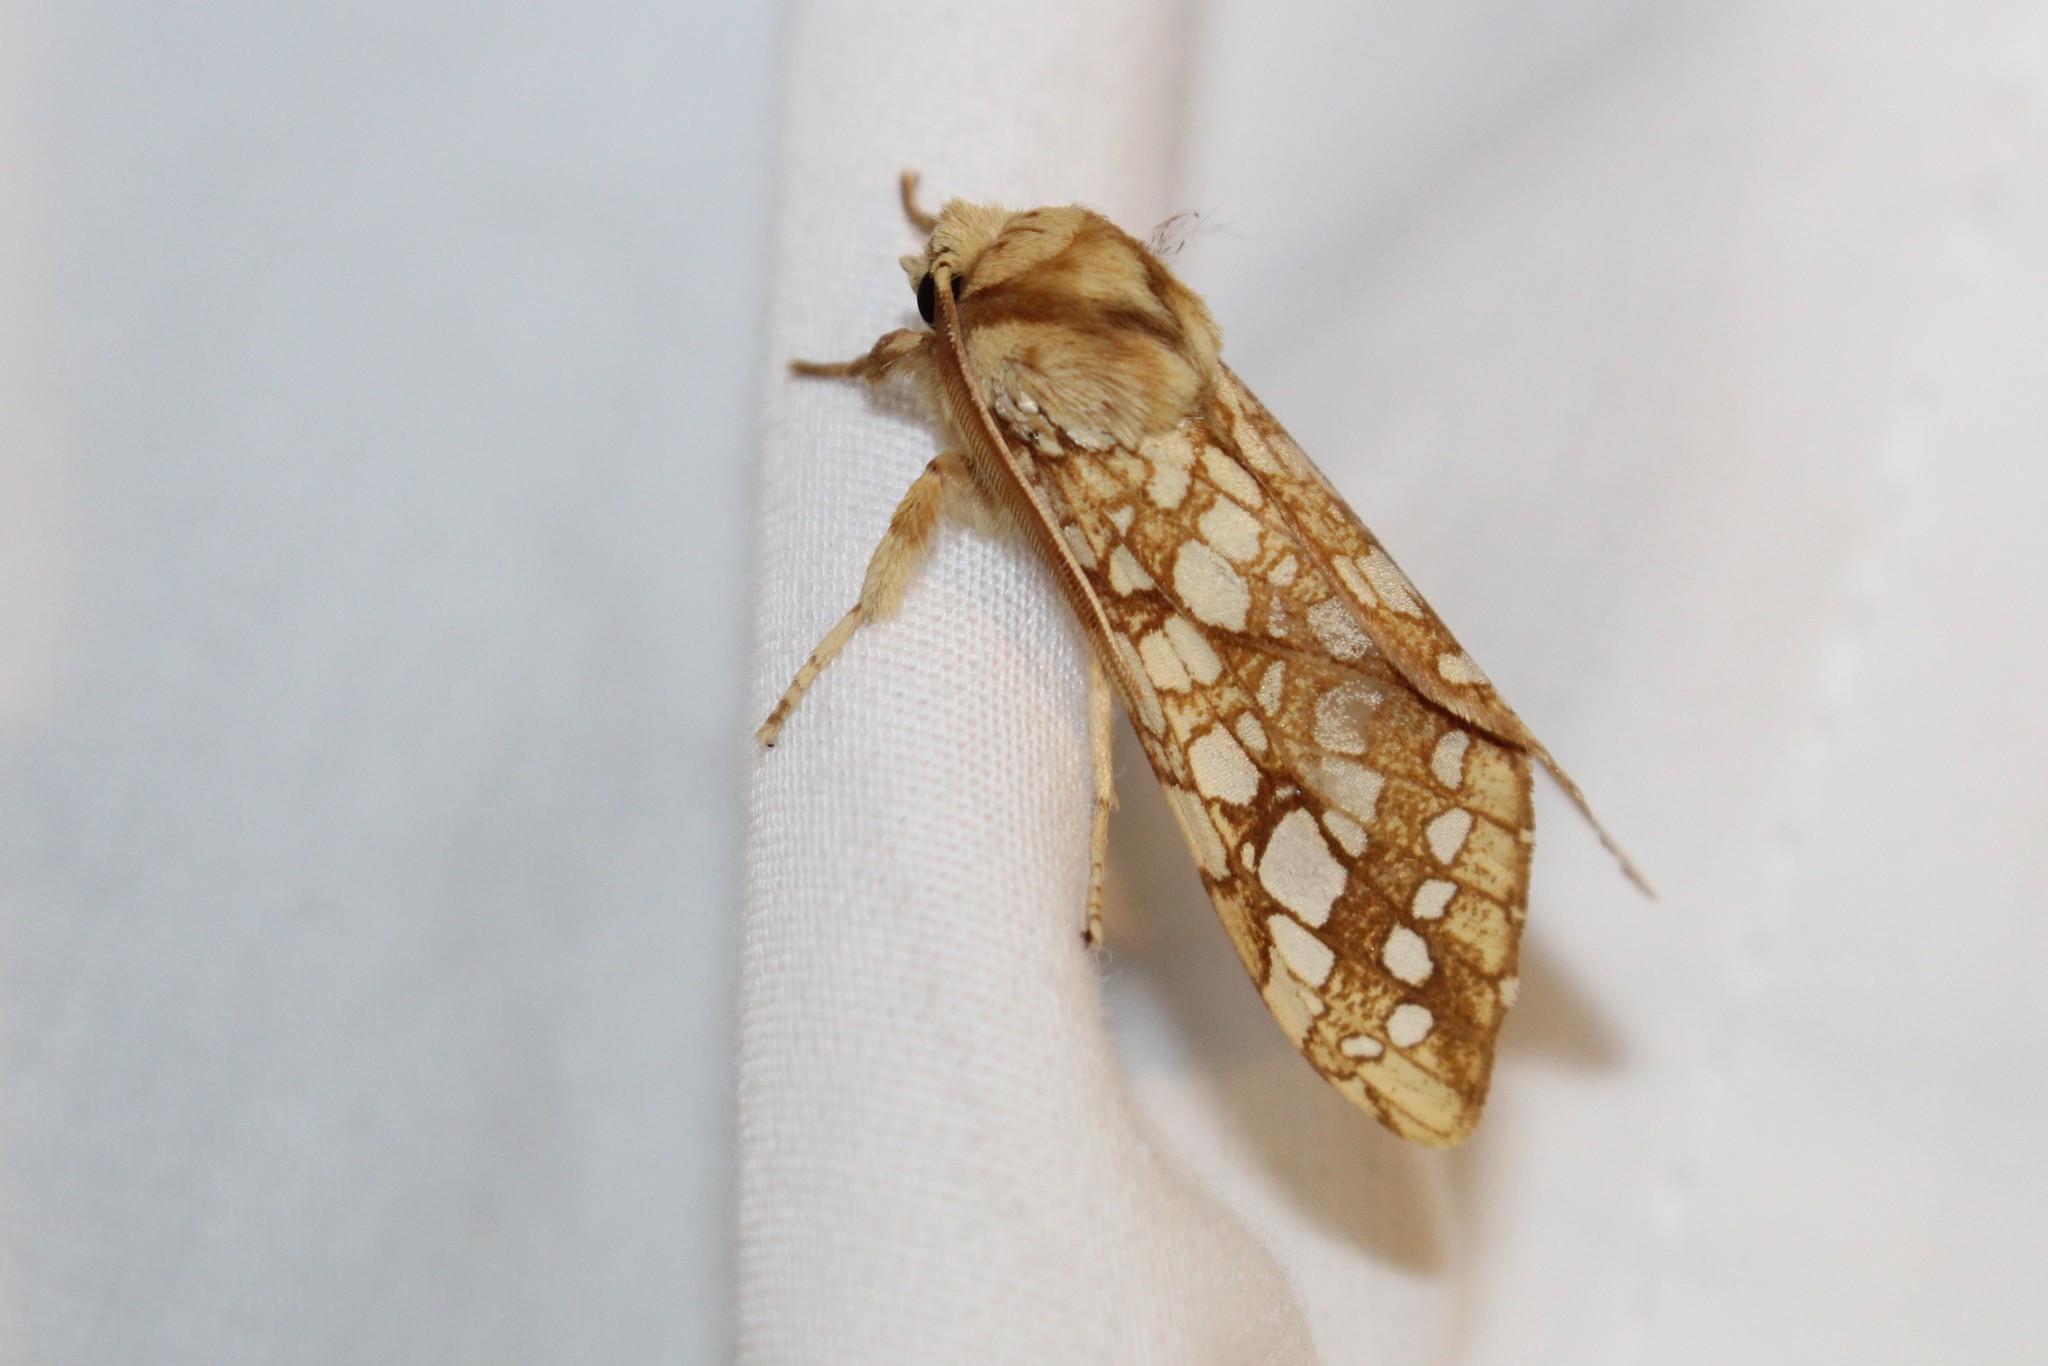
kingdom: Animalia
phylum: Arthropoda
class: Insecta
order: Lepidoptera
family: Erebidae
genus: Lophocampa
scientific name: Lophocampa caryae
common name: Hickory tussock moth
